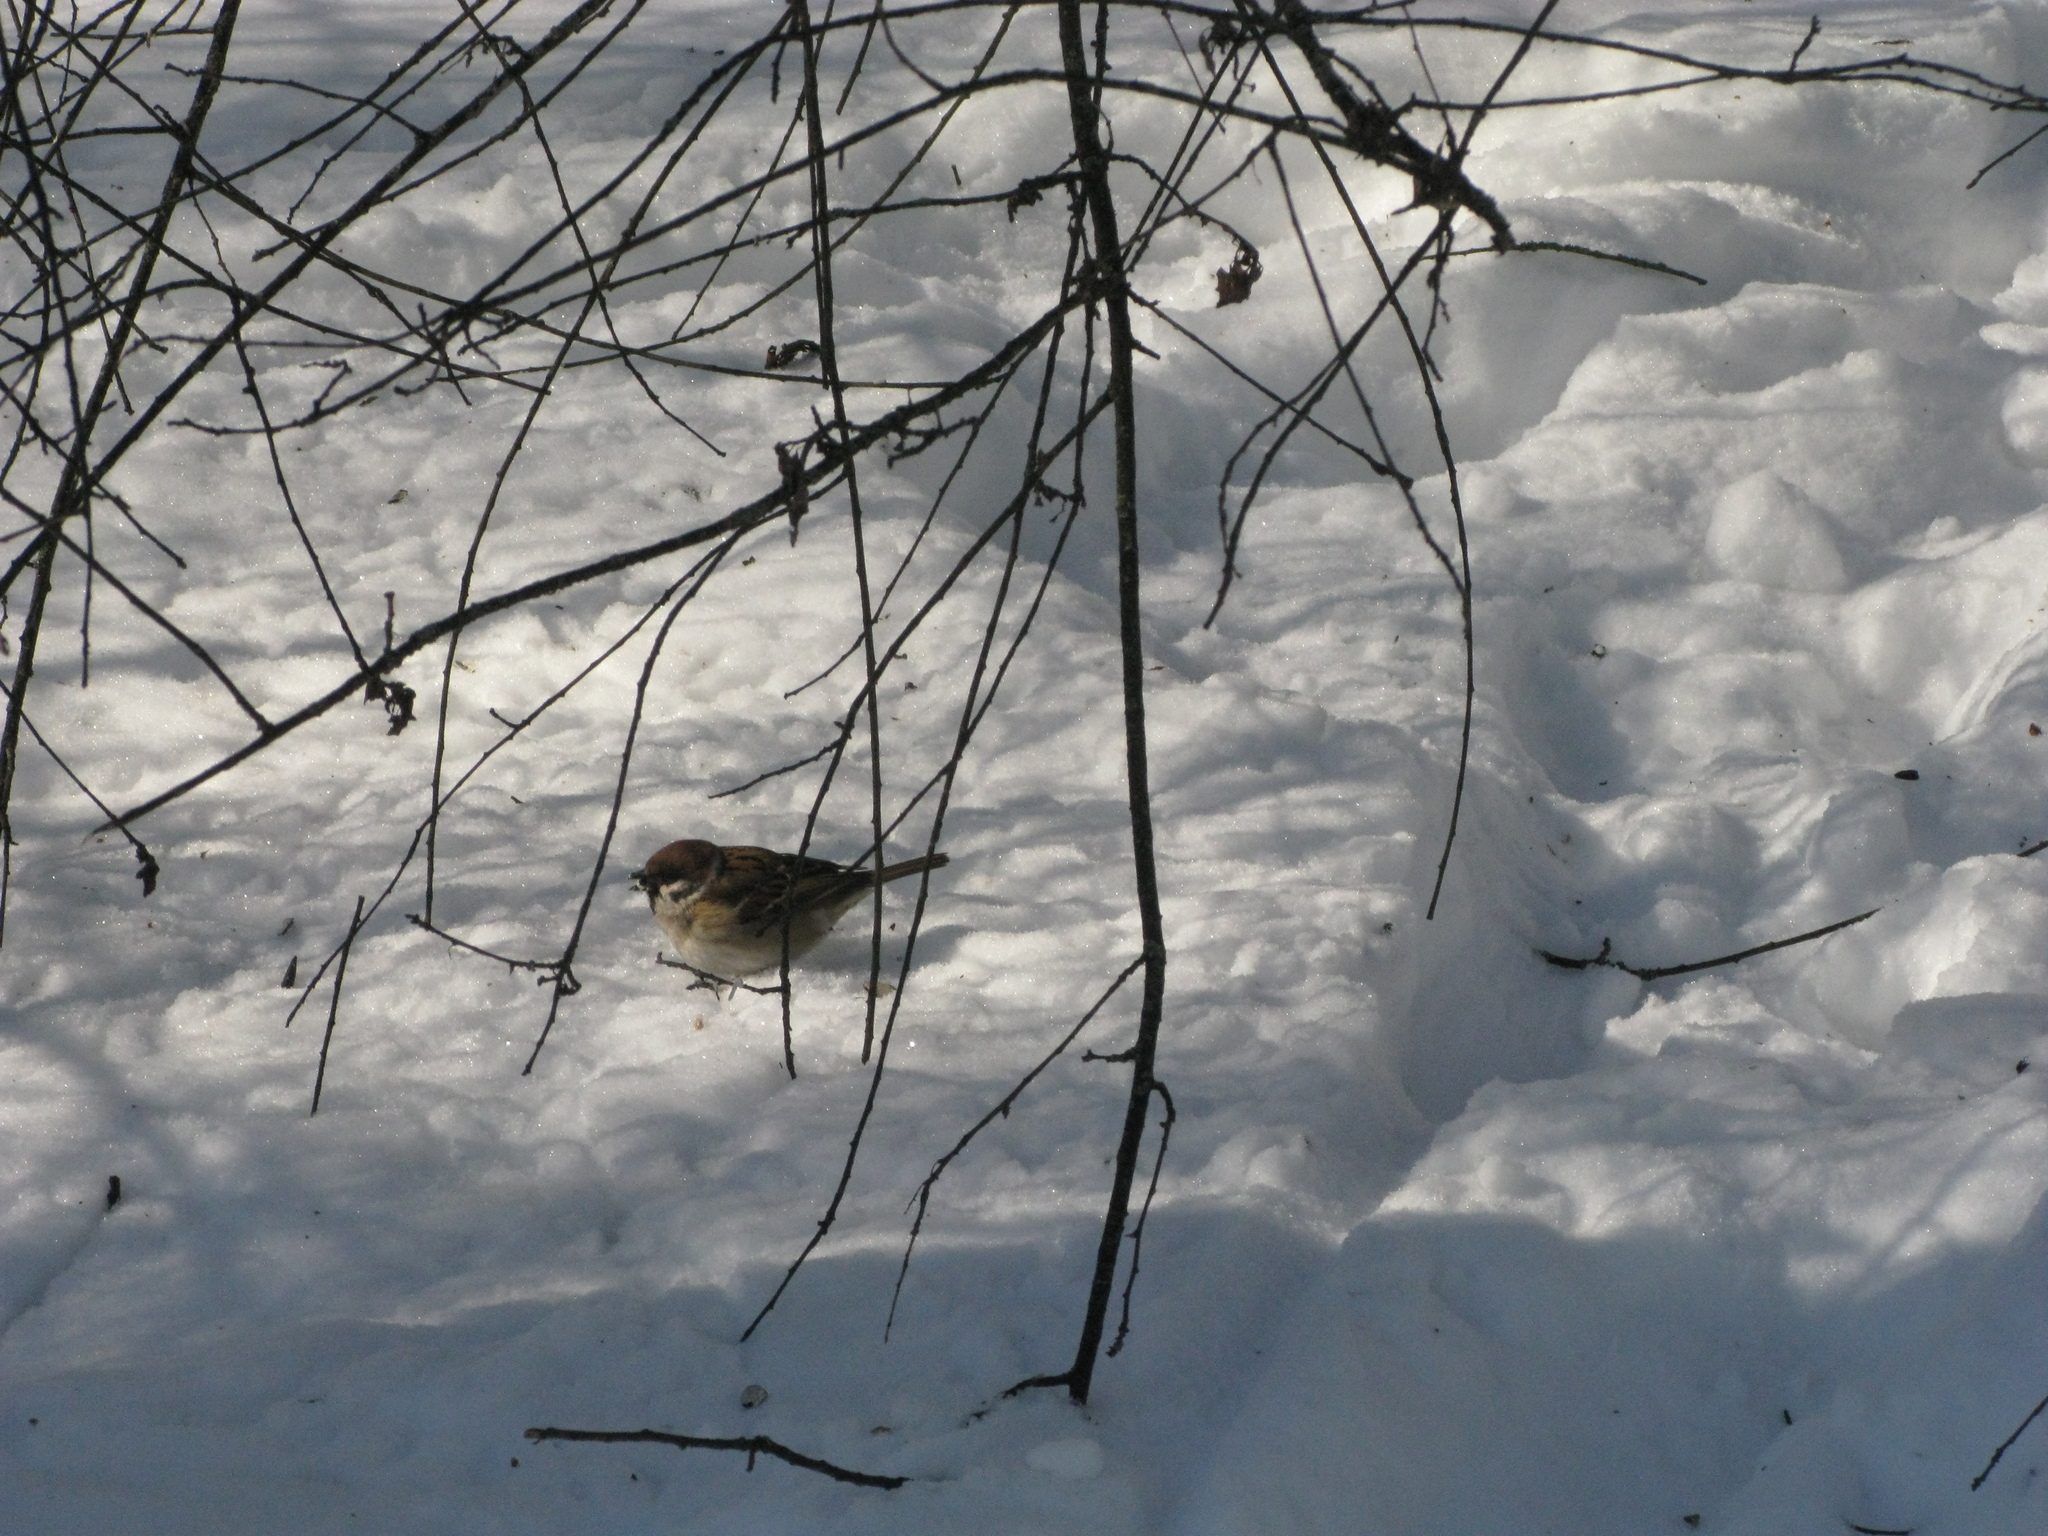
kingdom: Animalia
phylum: Chordata
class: Aves
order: Passeriformes
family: Passeridae
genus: Passer
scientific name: Passer montanus
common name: Eurasian tree sparrow
